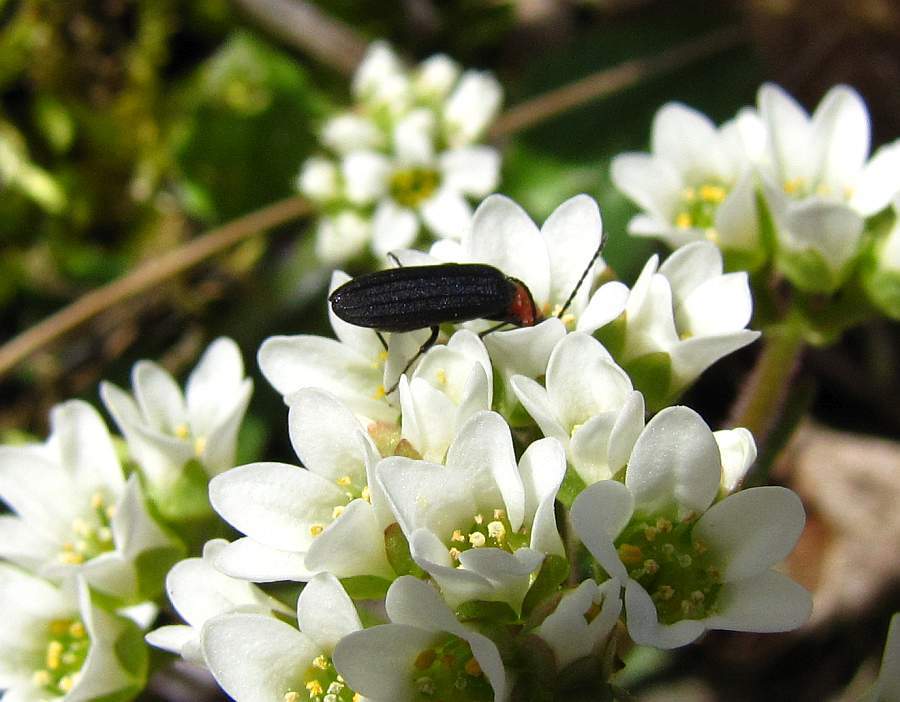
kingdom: Animalia
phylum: Arthropoda
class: Insecta
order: Coleoptera
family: Oedemeridae
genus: Ischnomera
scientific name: Ischnomera
